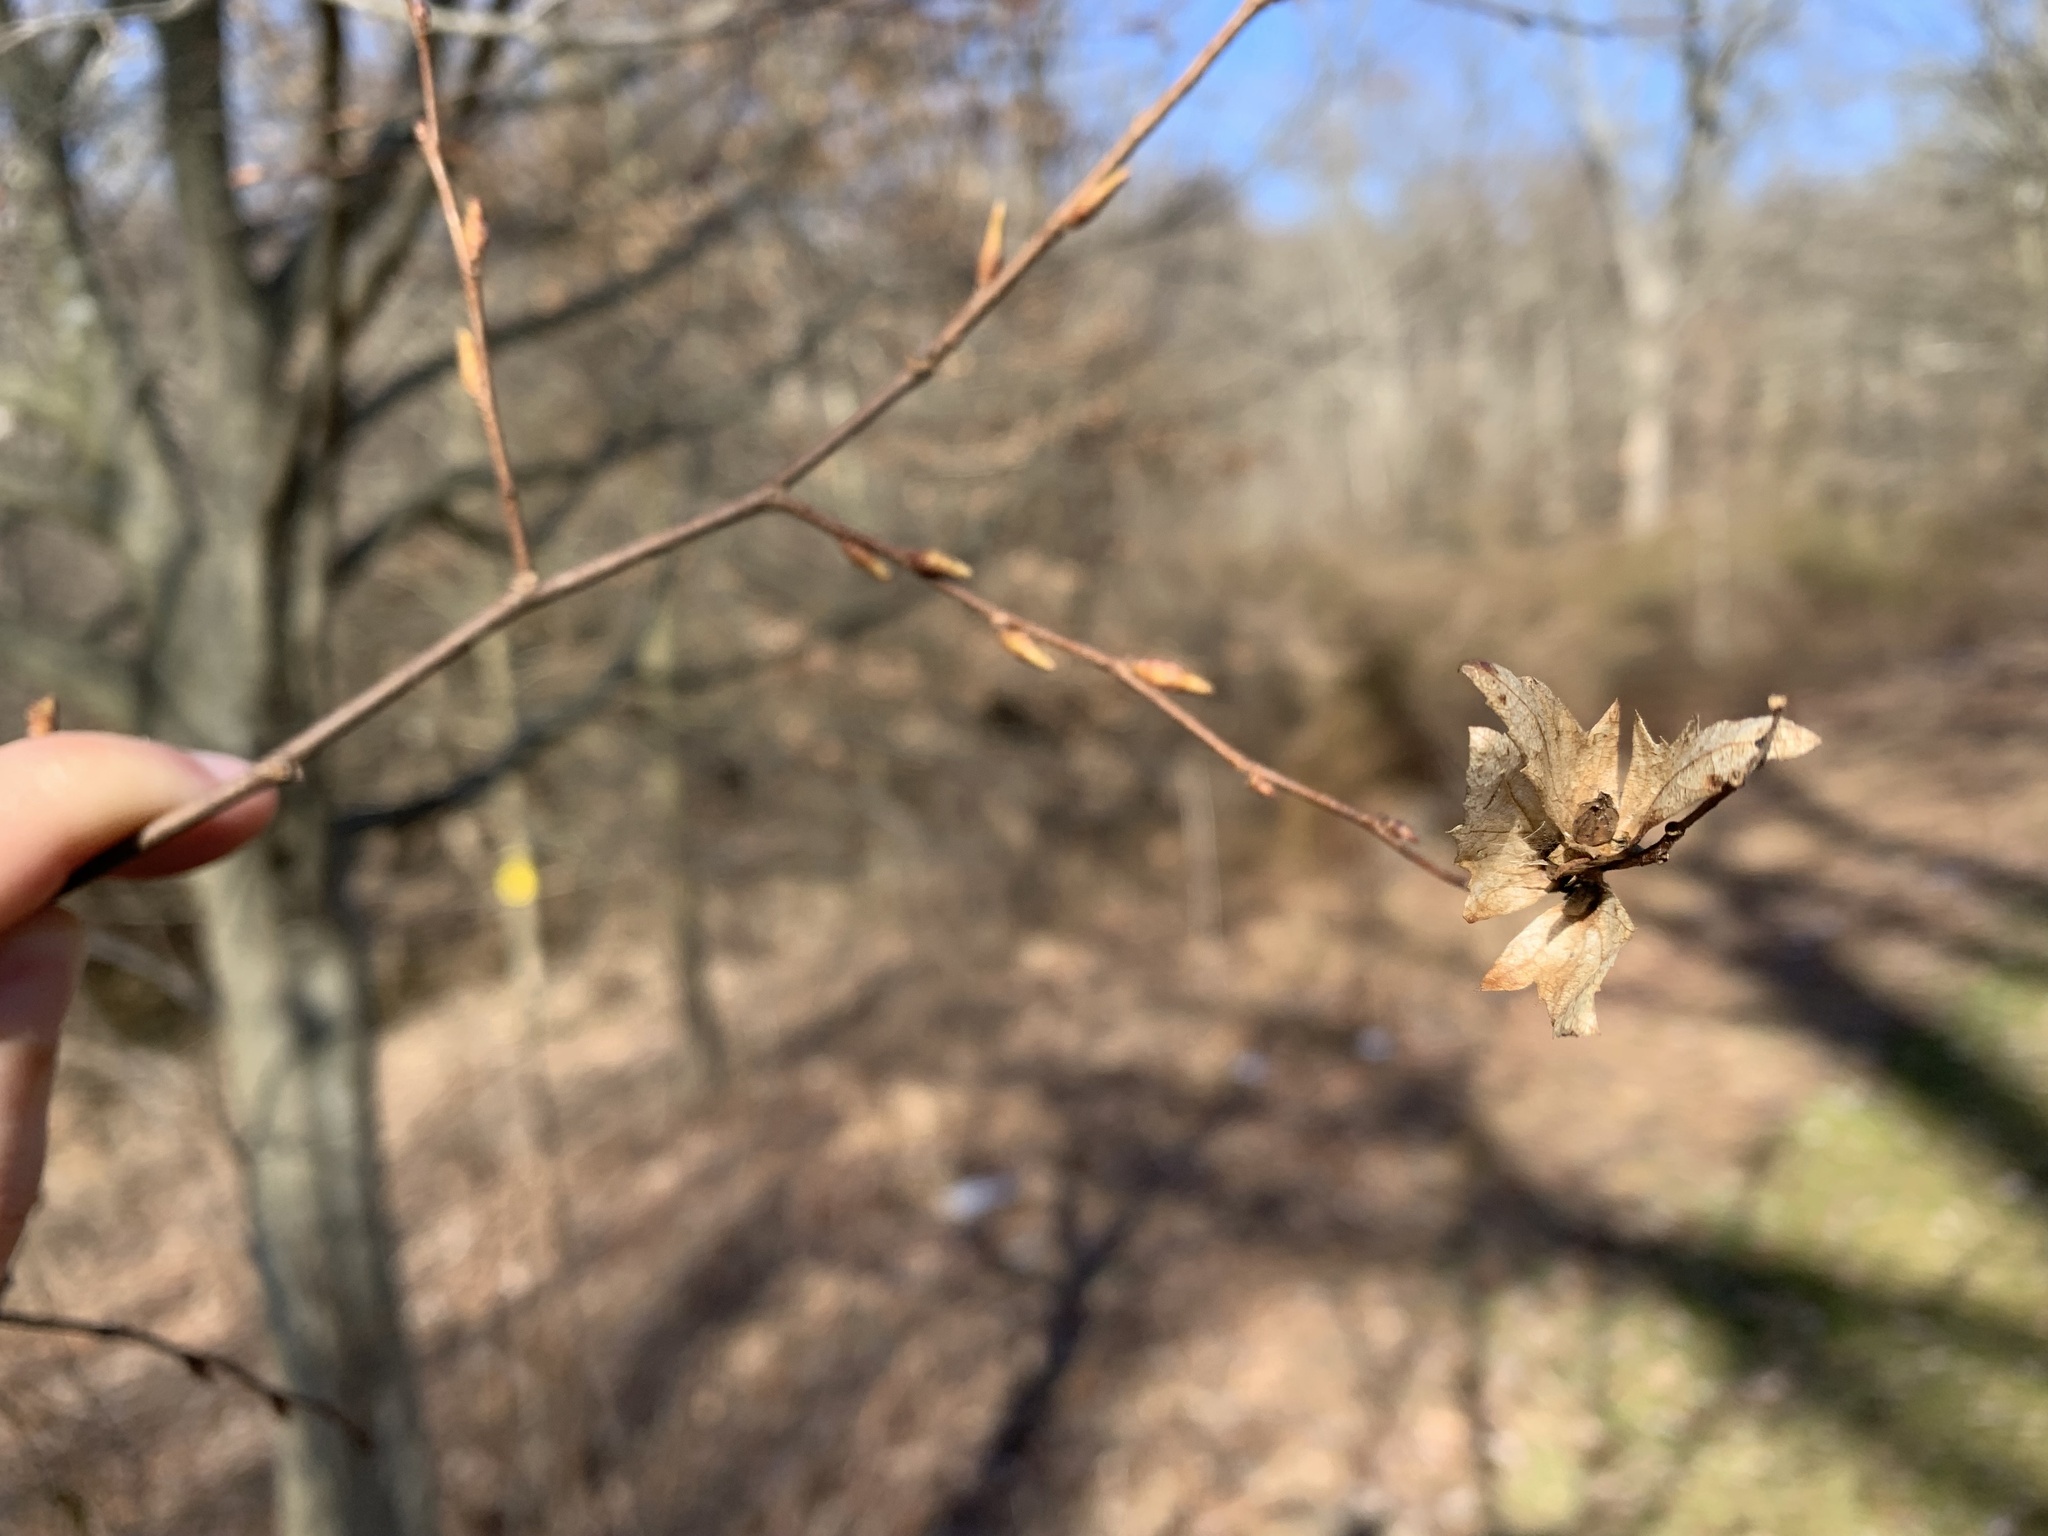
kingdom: Plantae
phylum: Tracheophyta
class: Magnoliopsida
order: Fagales
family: Betulaceae
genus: Carpinus
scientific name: Carpinus caroliniana
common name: American hornbeam
